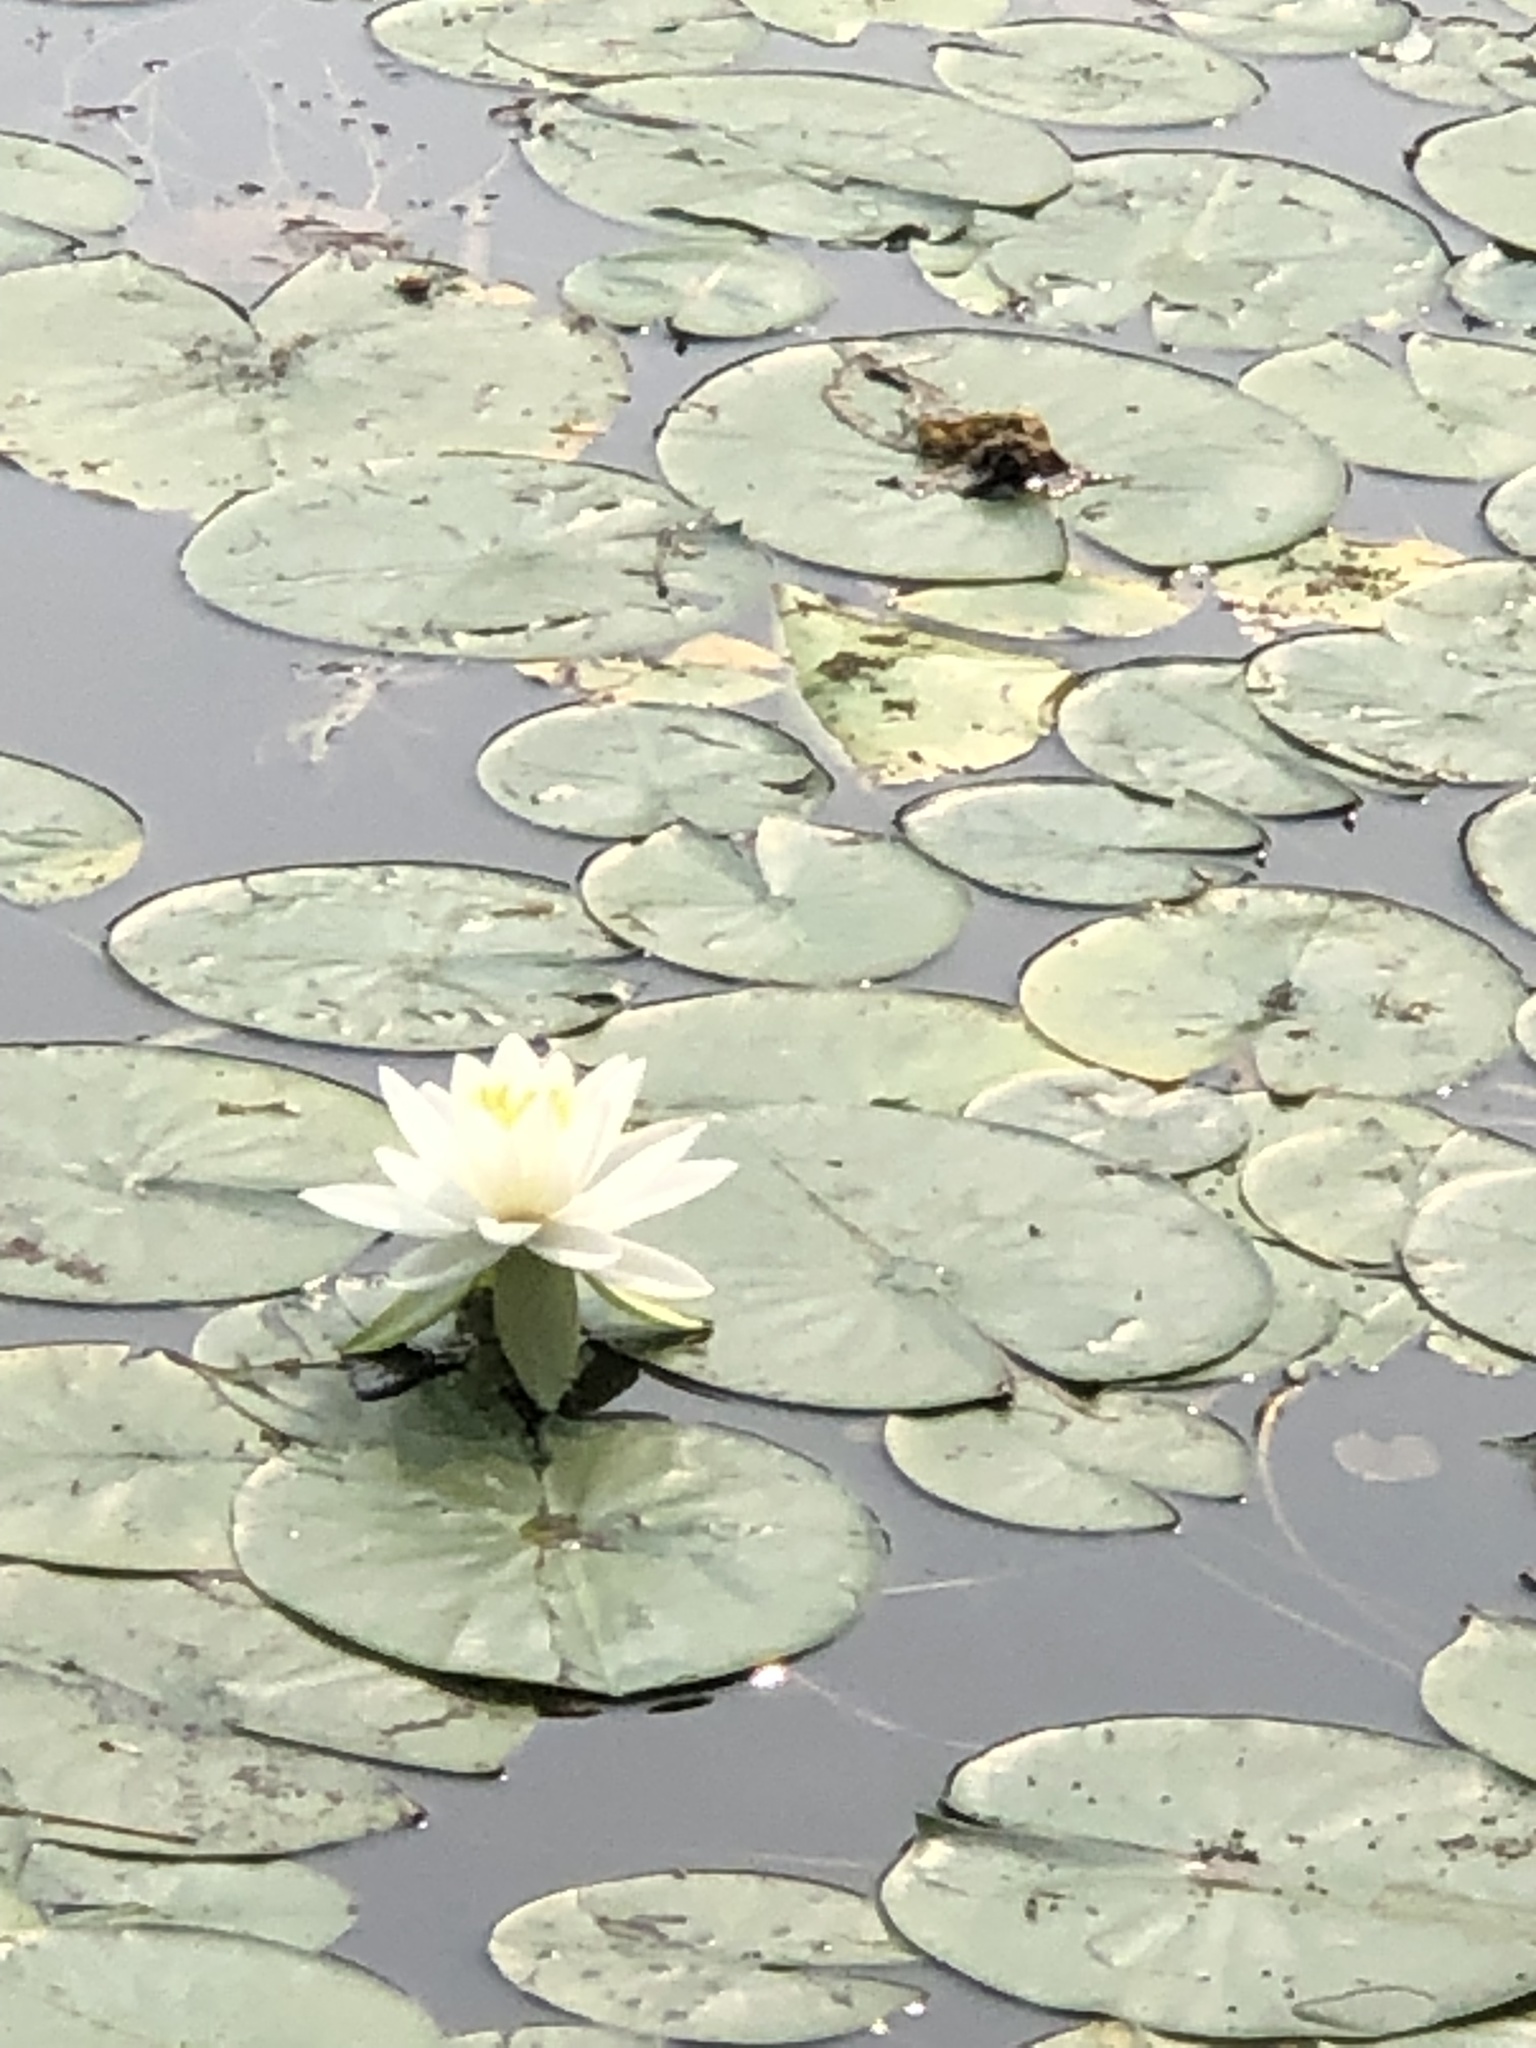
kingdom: Plantae
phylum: Tracheophyta
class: Magnoliopsida
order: Nymphaeales
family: Nymphaeaceae
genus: Nymphaea
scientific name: Nymphaea odorata
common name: Fragrant water-lily
